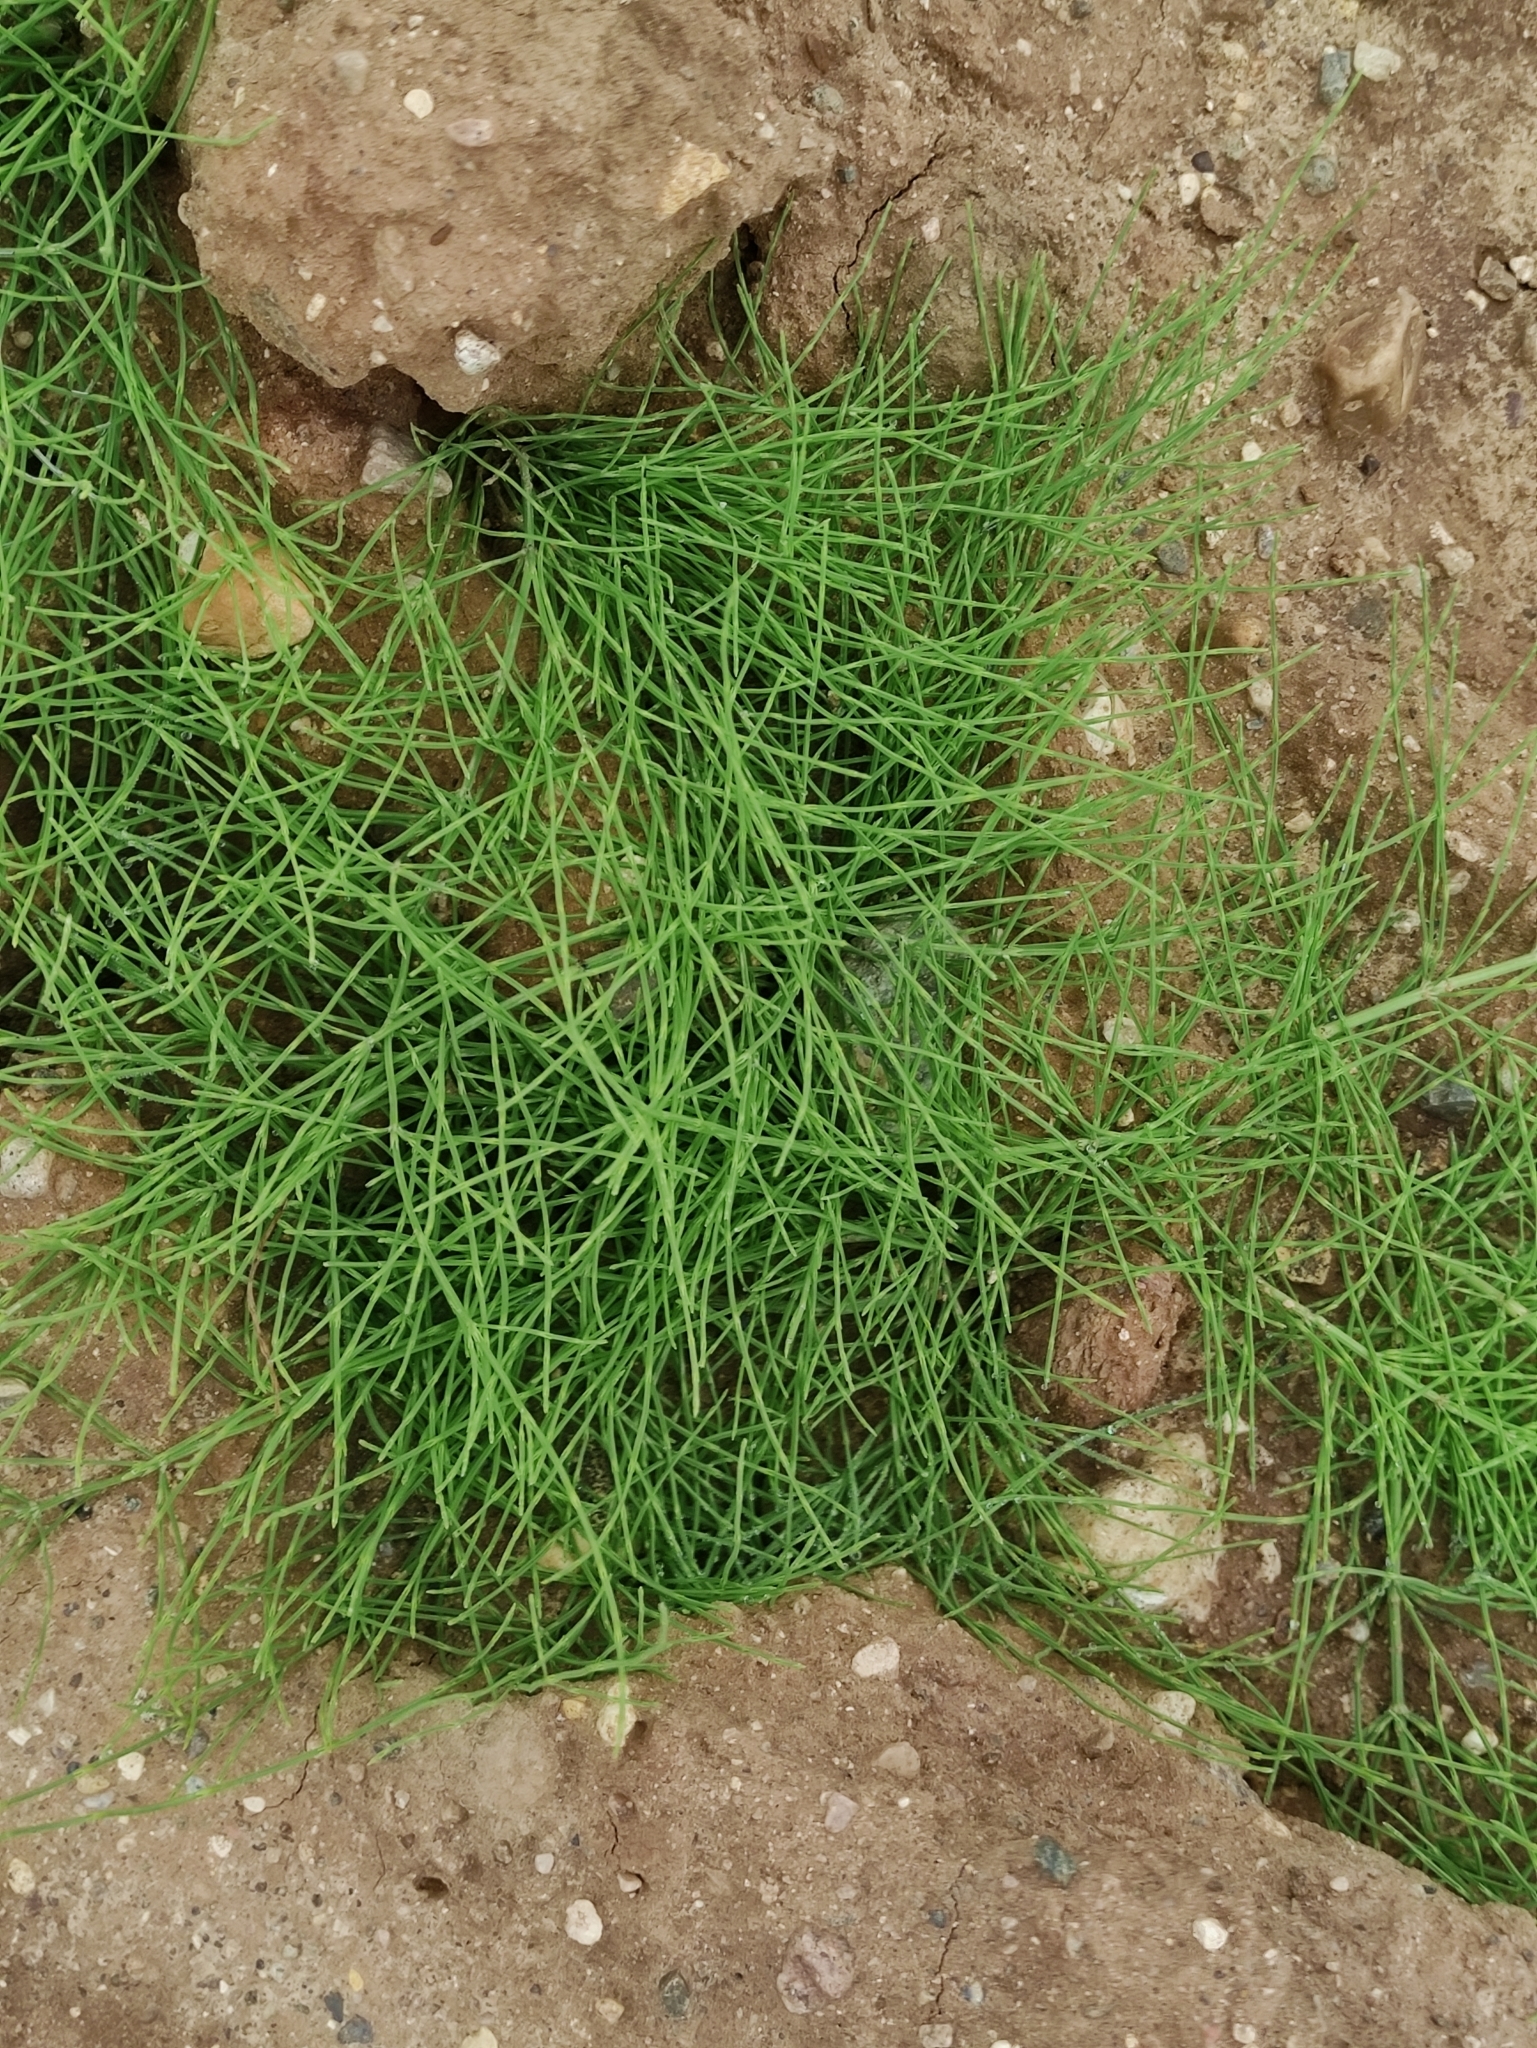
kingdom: Plantae
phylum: Tracheophyta
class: Polypodiopsida
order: Equisetales
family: Equisetaceae
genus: Equisetum
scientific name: Equisetum arvense
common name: Field horsetail
